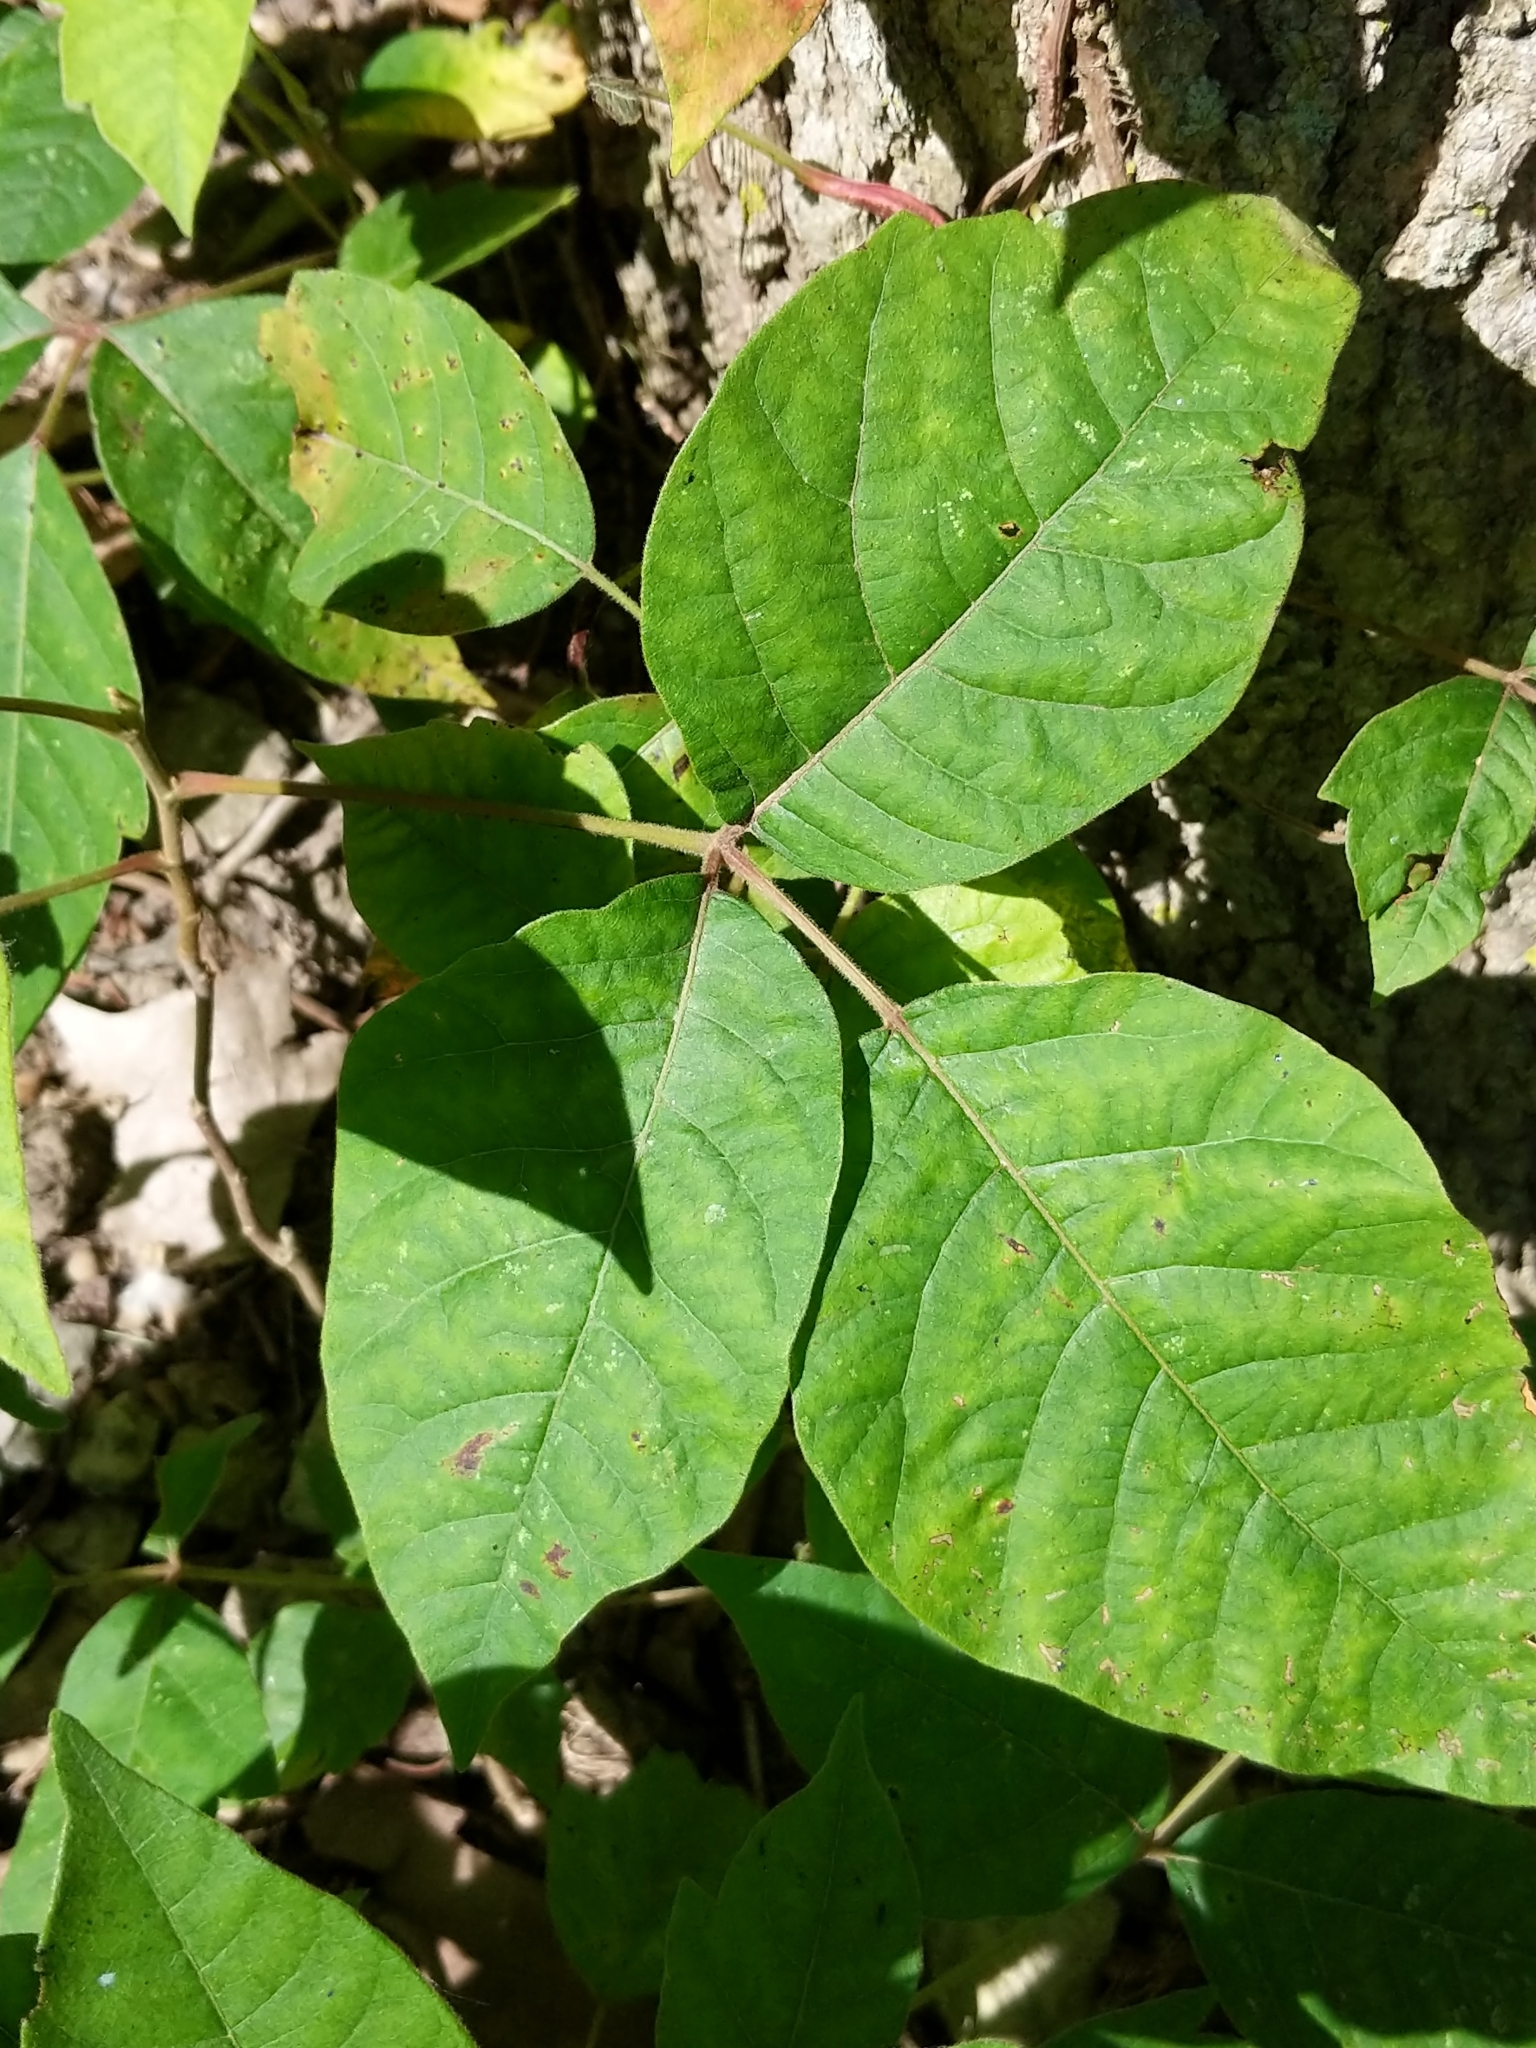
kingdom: Plantae
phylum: Tracheophyta
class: Magnoliopsida
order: Sapindales
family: Anacardiaceae
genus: Toxicodendron
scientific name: Toxicodendron radicans
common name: Poison ivy
